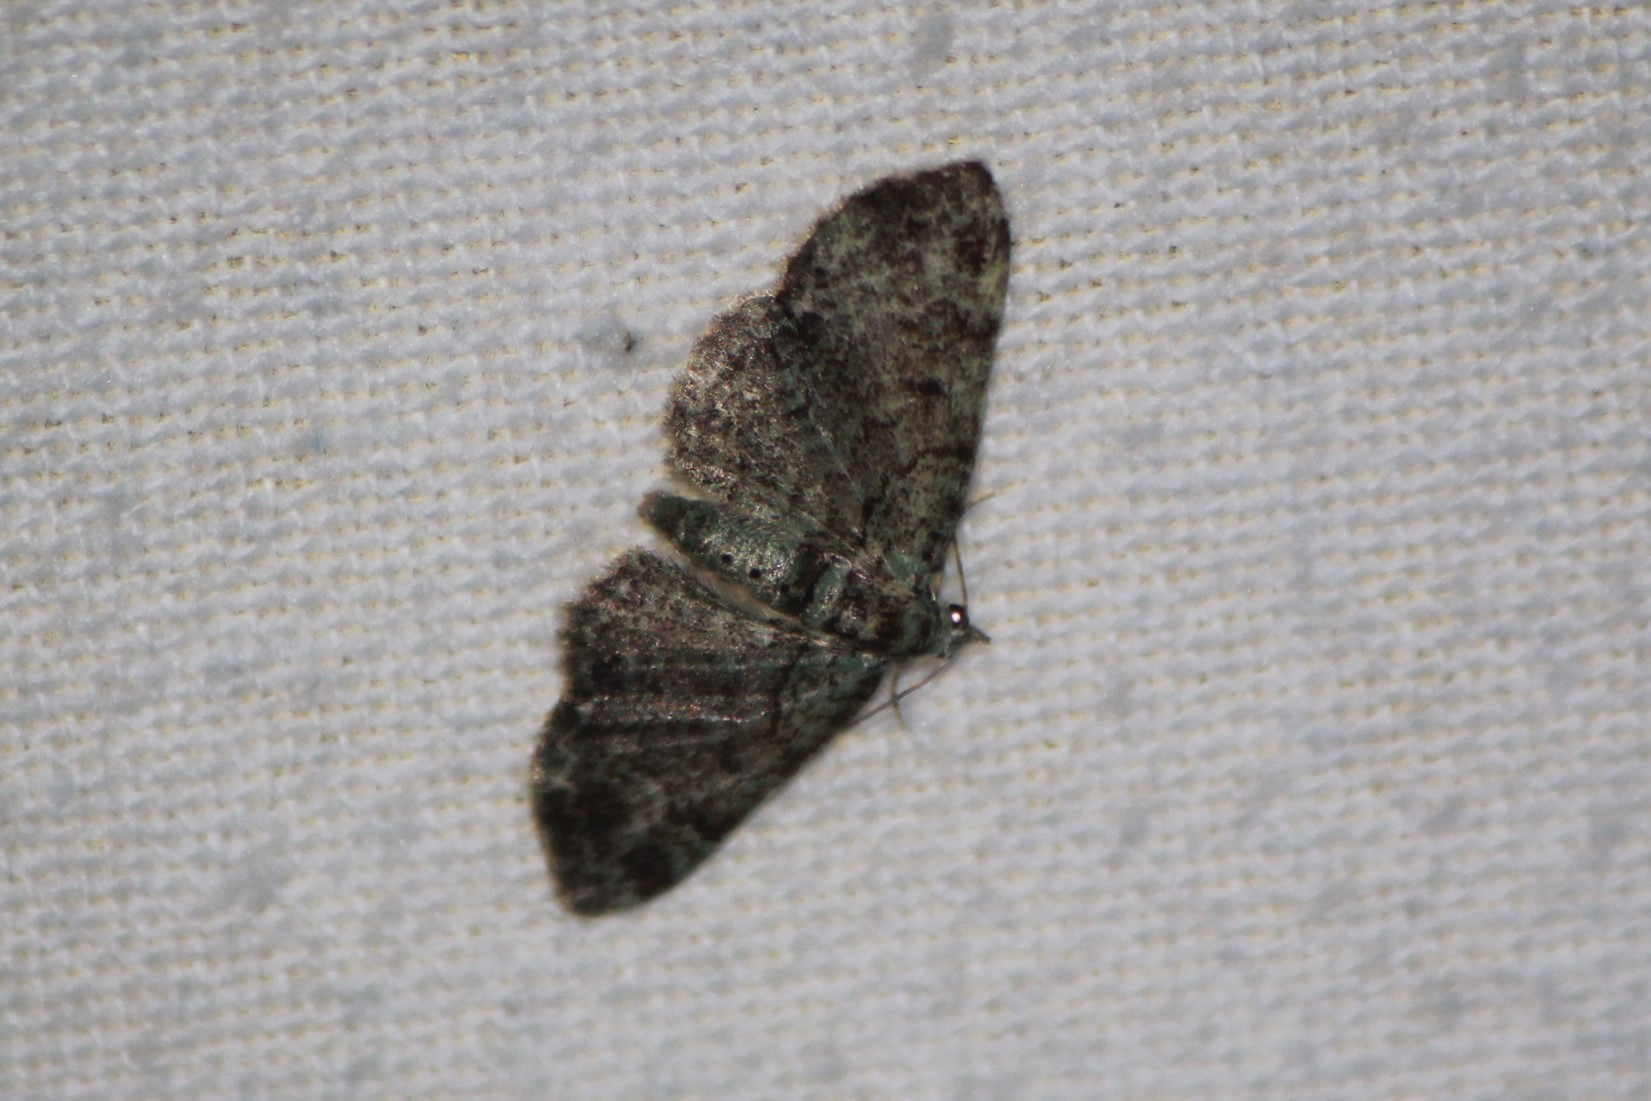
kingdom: Animalia
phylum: Arthropoda
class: Insecta
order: Lepidoptera
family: Geometridae
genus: Pasiphila
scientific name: Pasiphila rectangulata
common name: Green pug
